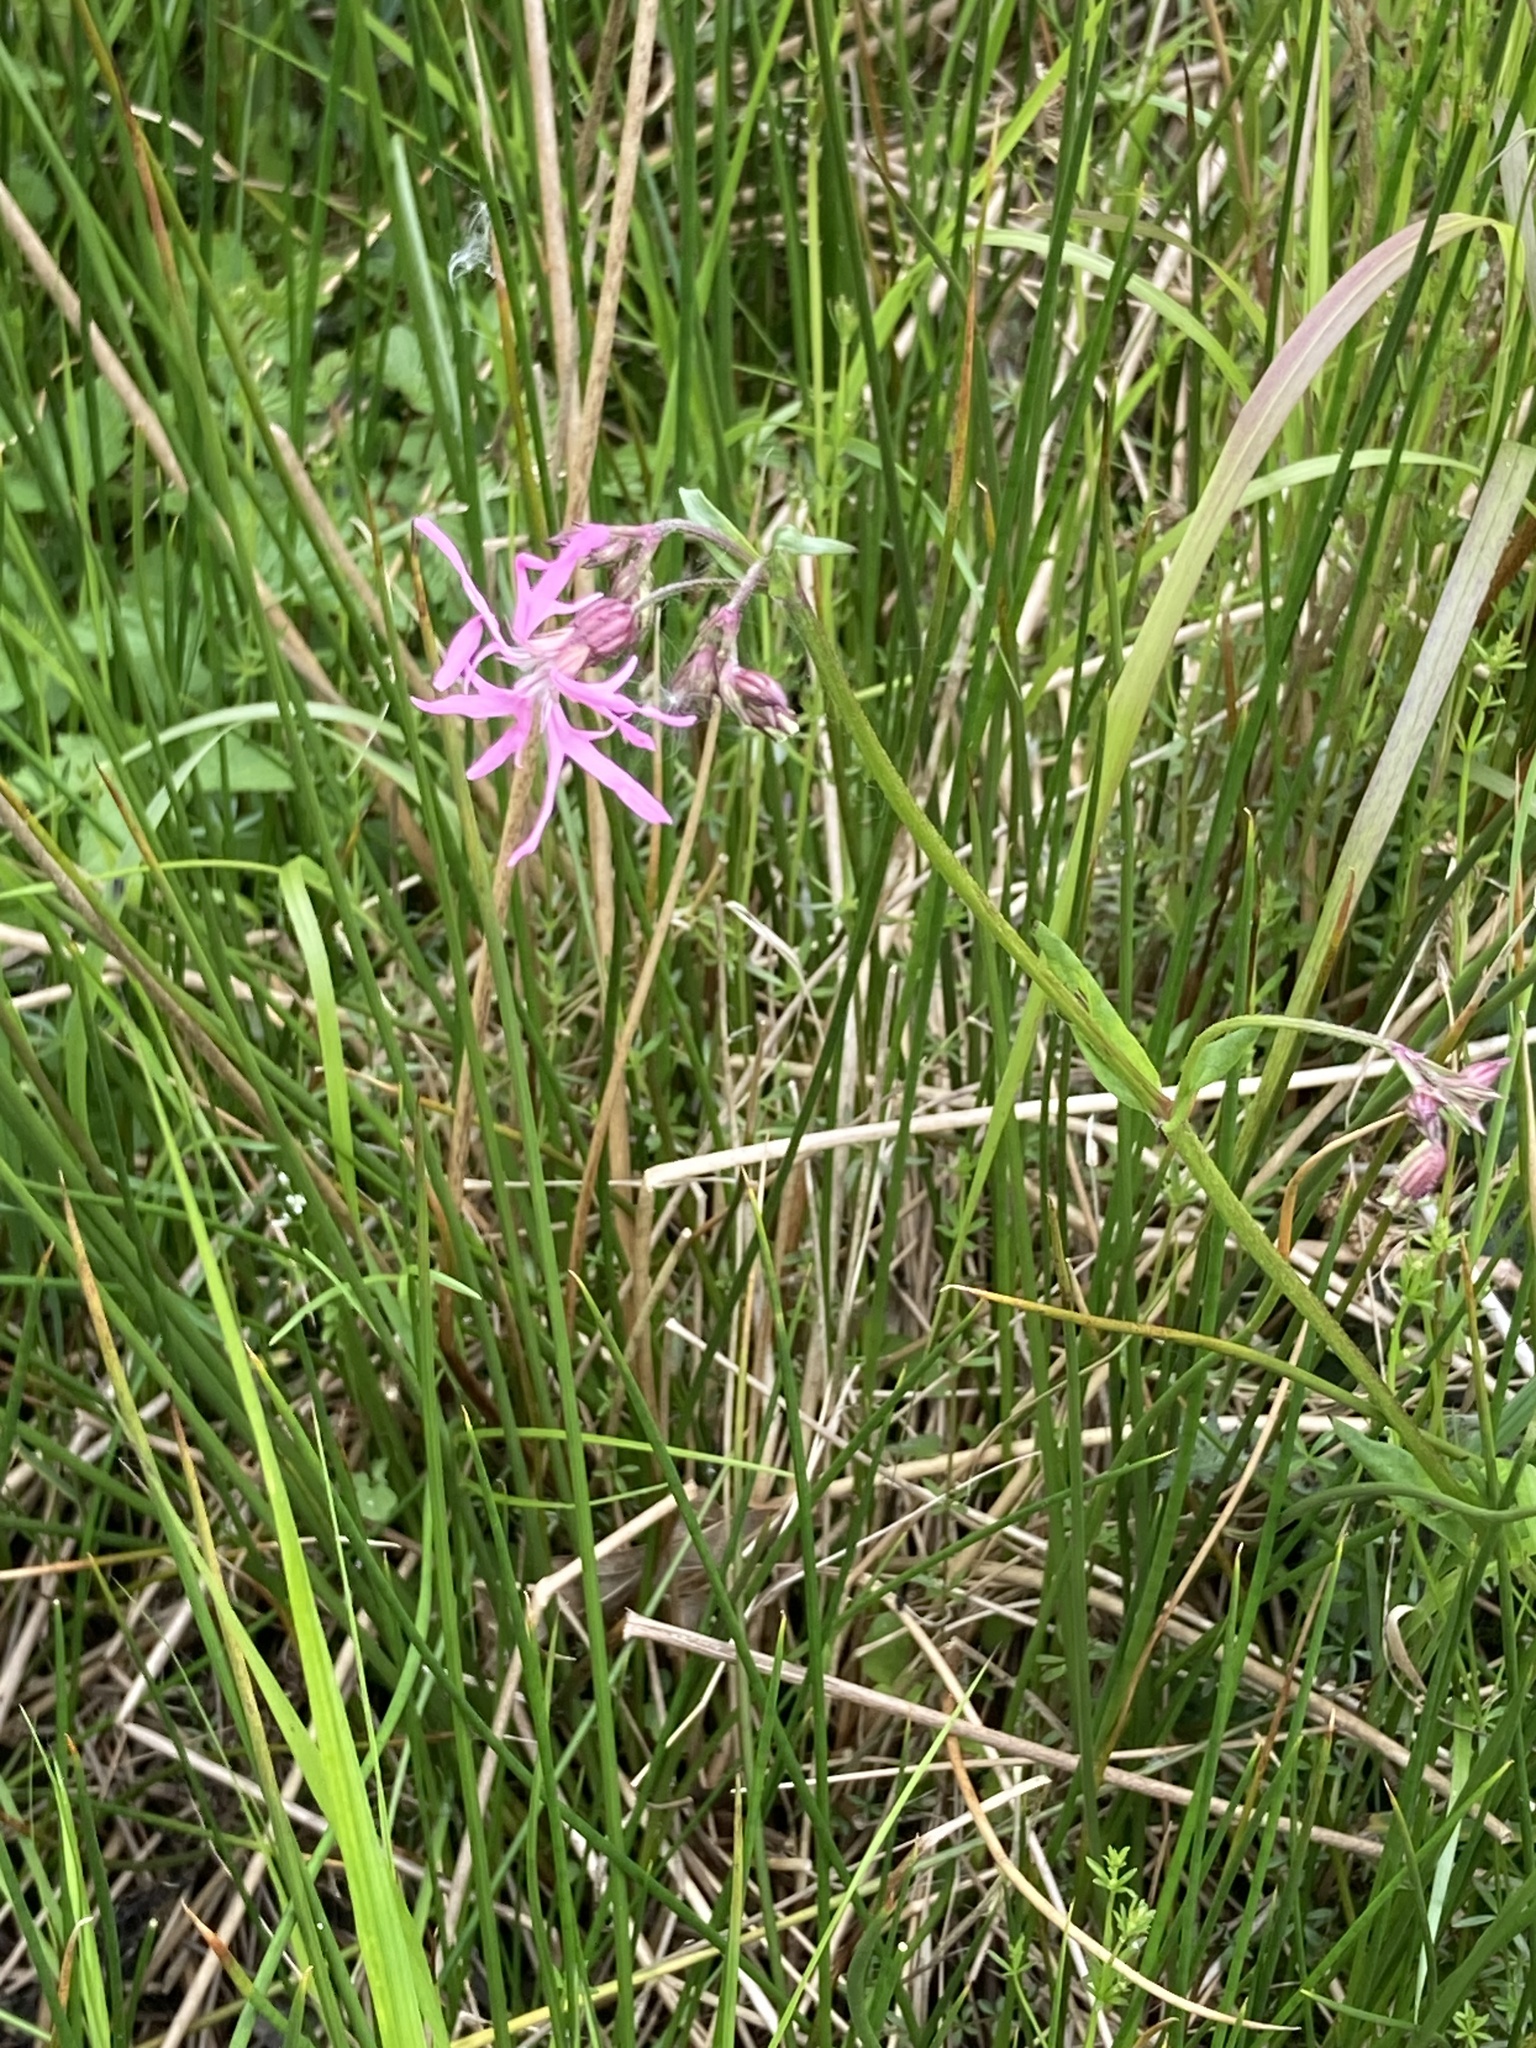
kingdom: Plantae
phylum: Tracheophyta
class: Magnoliopsida
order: Caryophyllales
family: Caryophyllaceae
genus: Silene
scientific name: Silene flos-cuculi
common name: Ragged-robin
